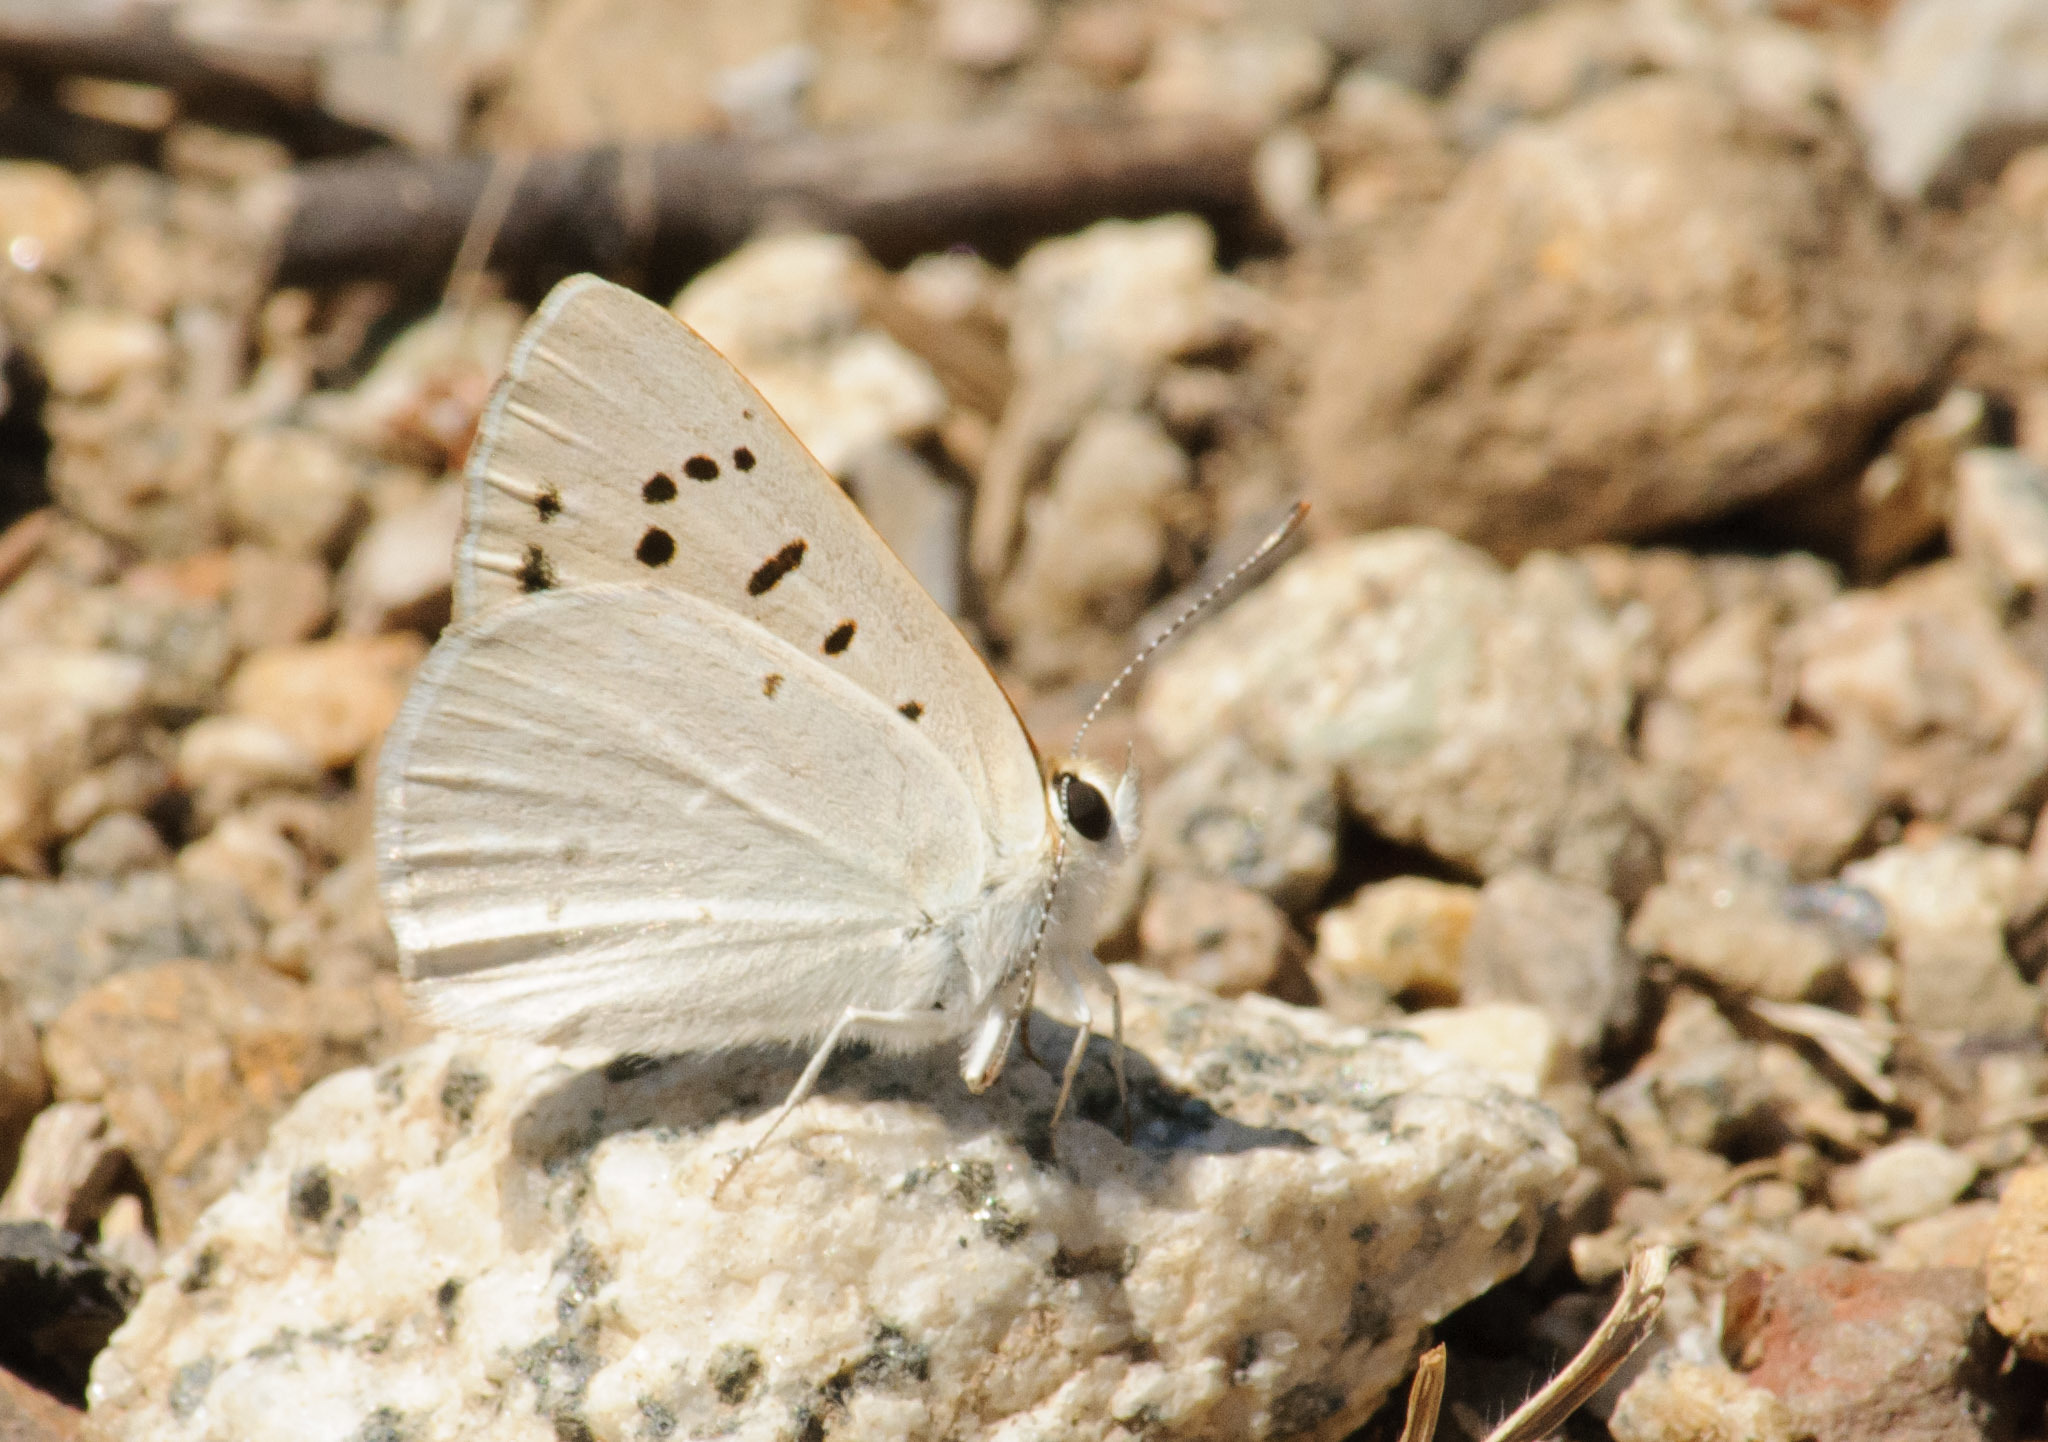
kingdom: Animalia
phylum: Arthropoda
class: Insecta
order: Lepidoptera
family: Lycaenidae
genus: Tharsalea
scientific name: Tharsalea rubidus
